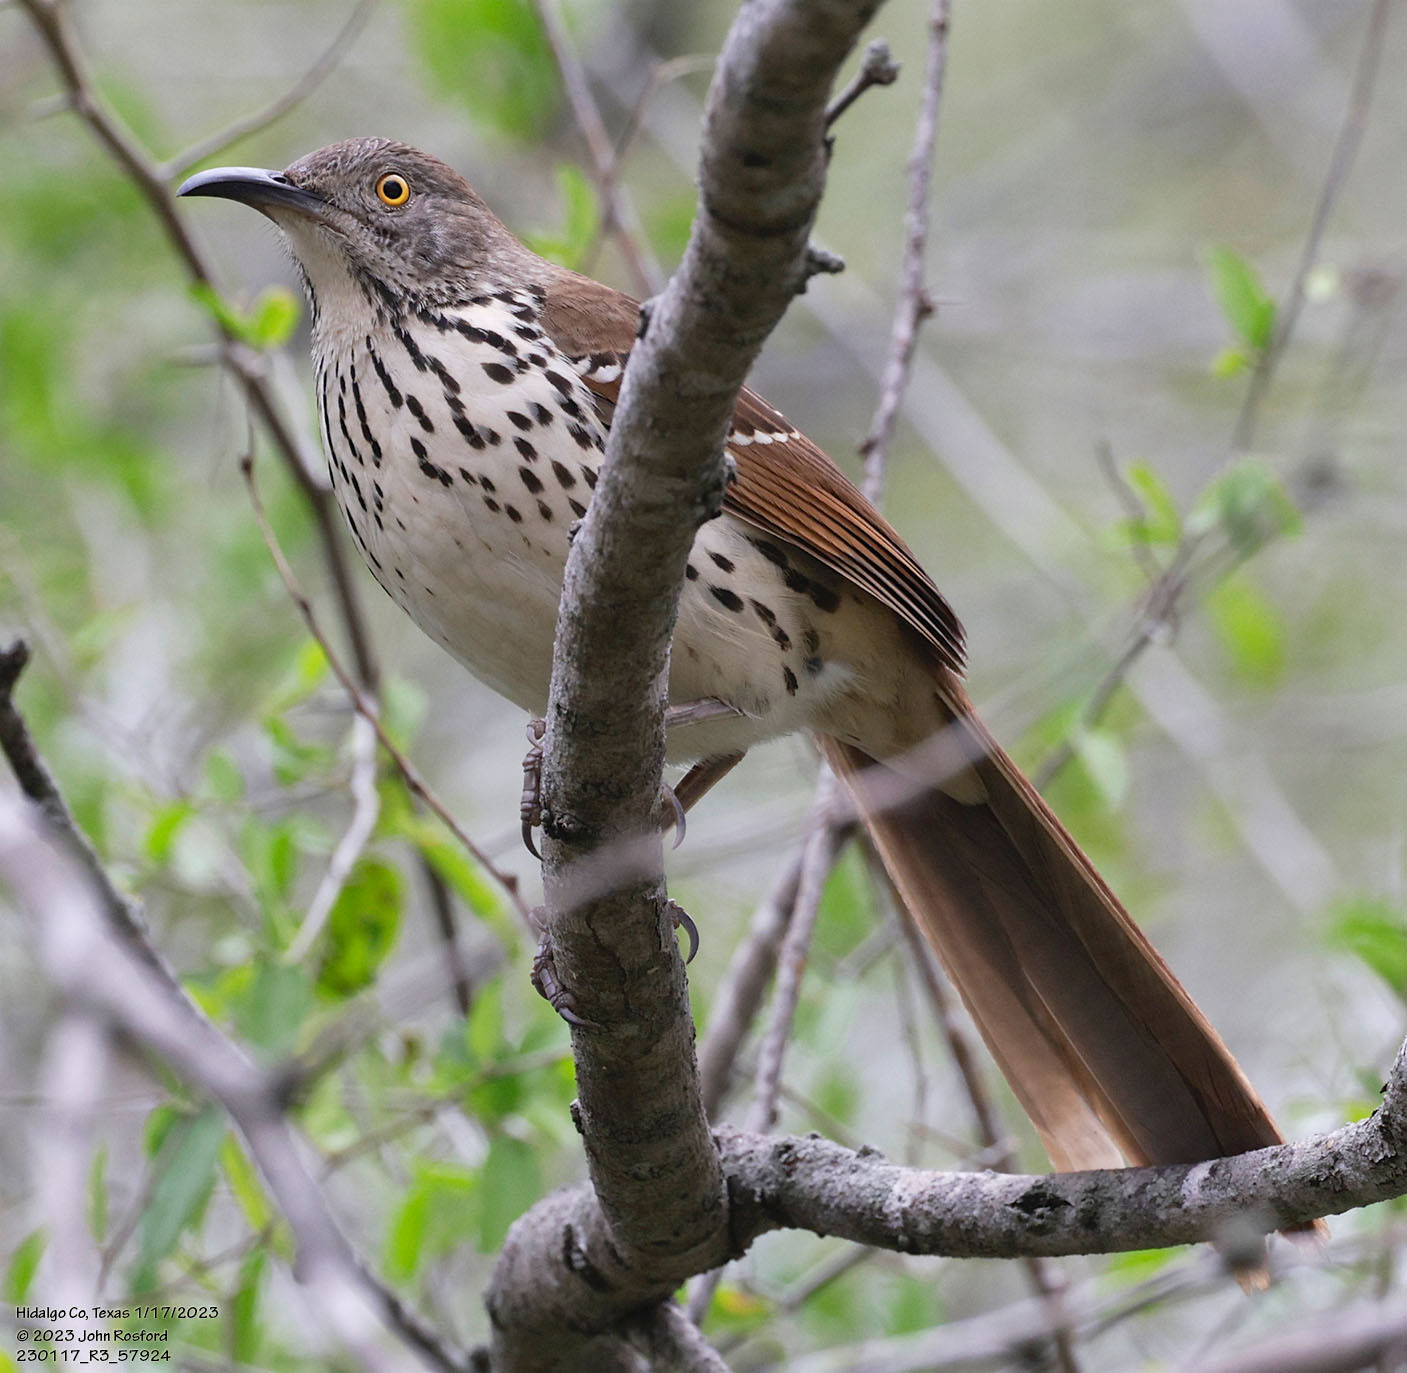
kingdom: Animalia
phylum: Chordata
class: Aves
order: Passeriformes
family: Mimidae
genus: Toxostoma
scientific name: Toxostoma longirostre
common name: Long-billed thrasher
